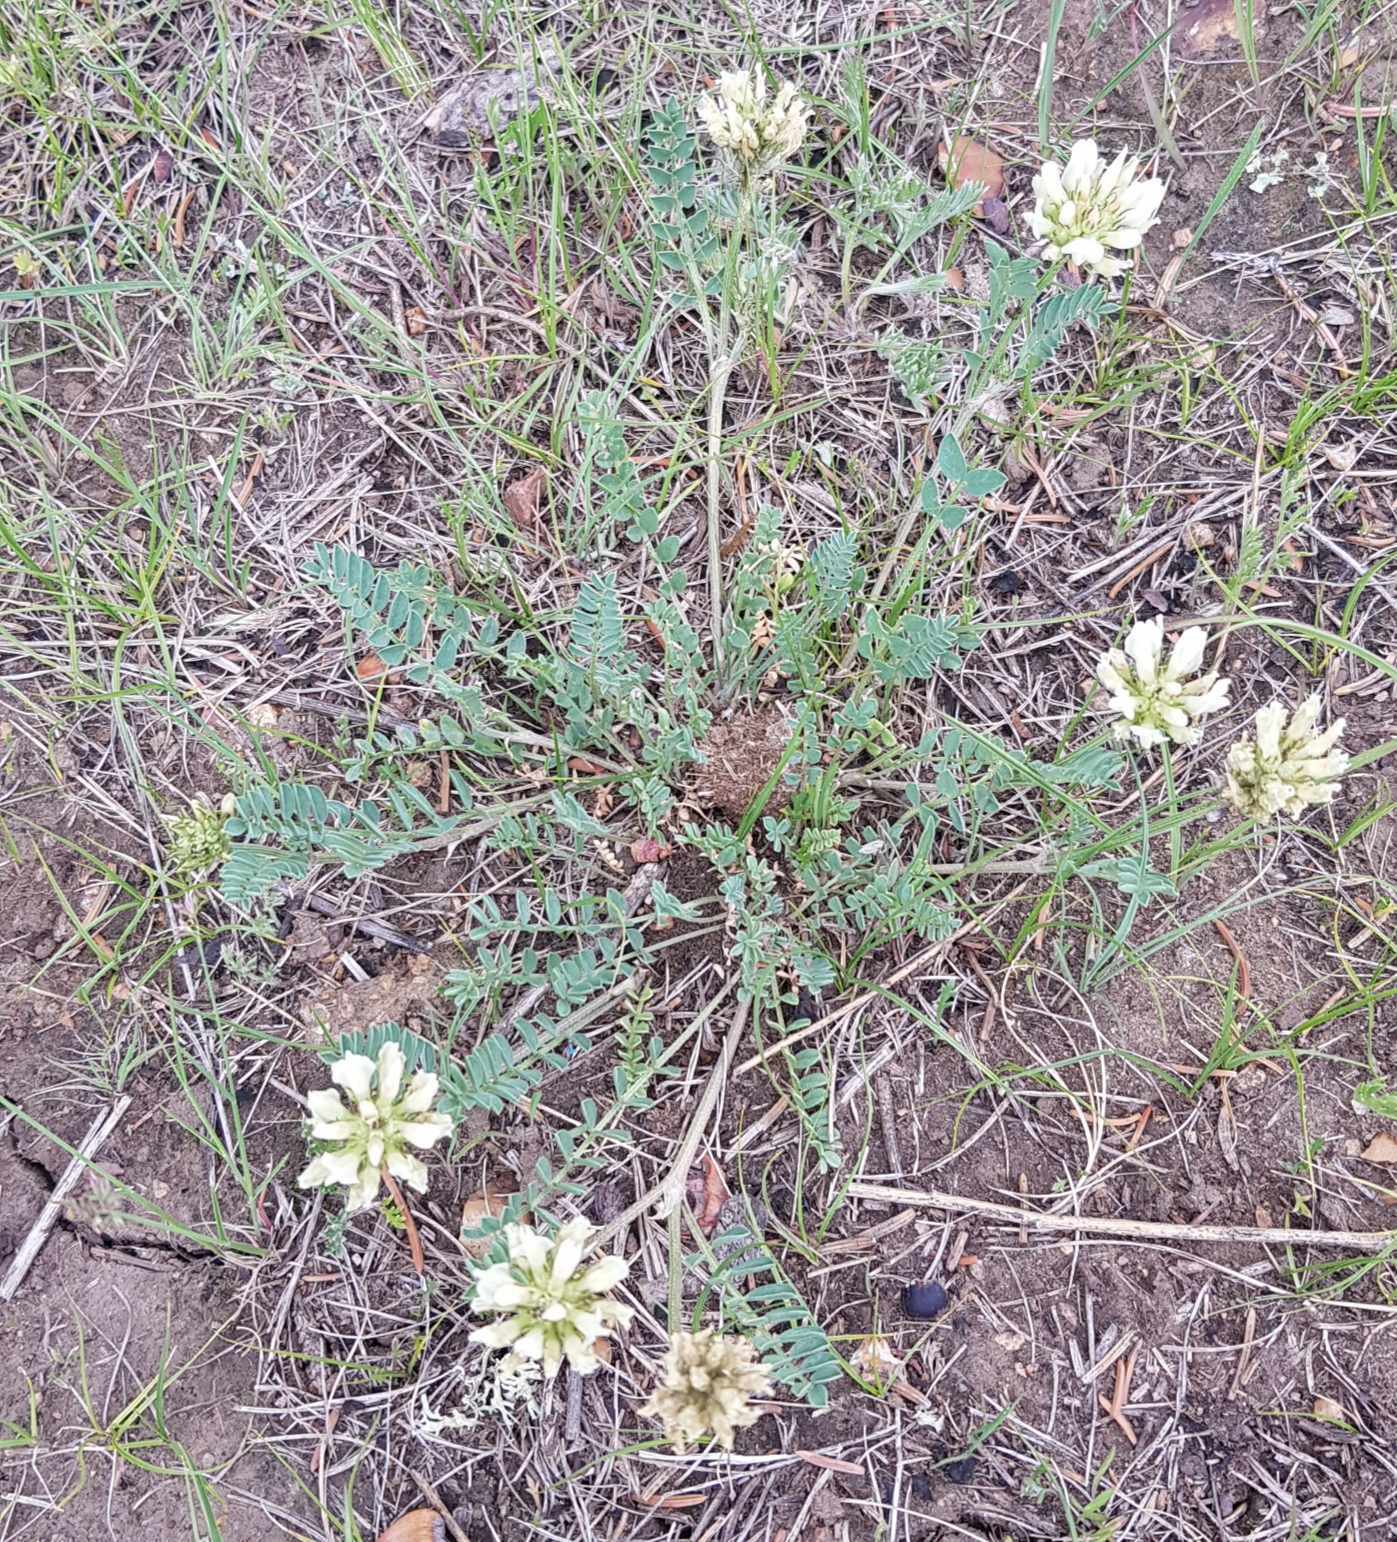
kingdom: Plantae
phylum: Tracheophyta
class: Magnoliopsida
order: Fabales
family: Fabaceae
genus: Astragalus
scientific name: Astragalus laxmannii
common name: Laxmann's milk-vetch
